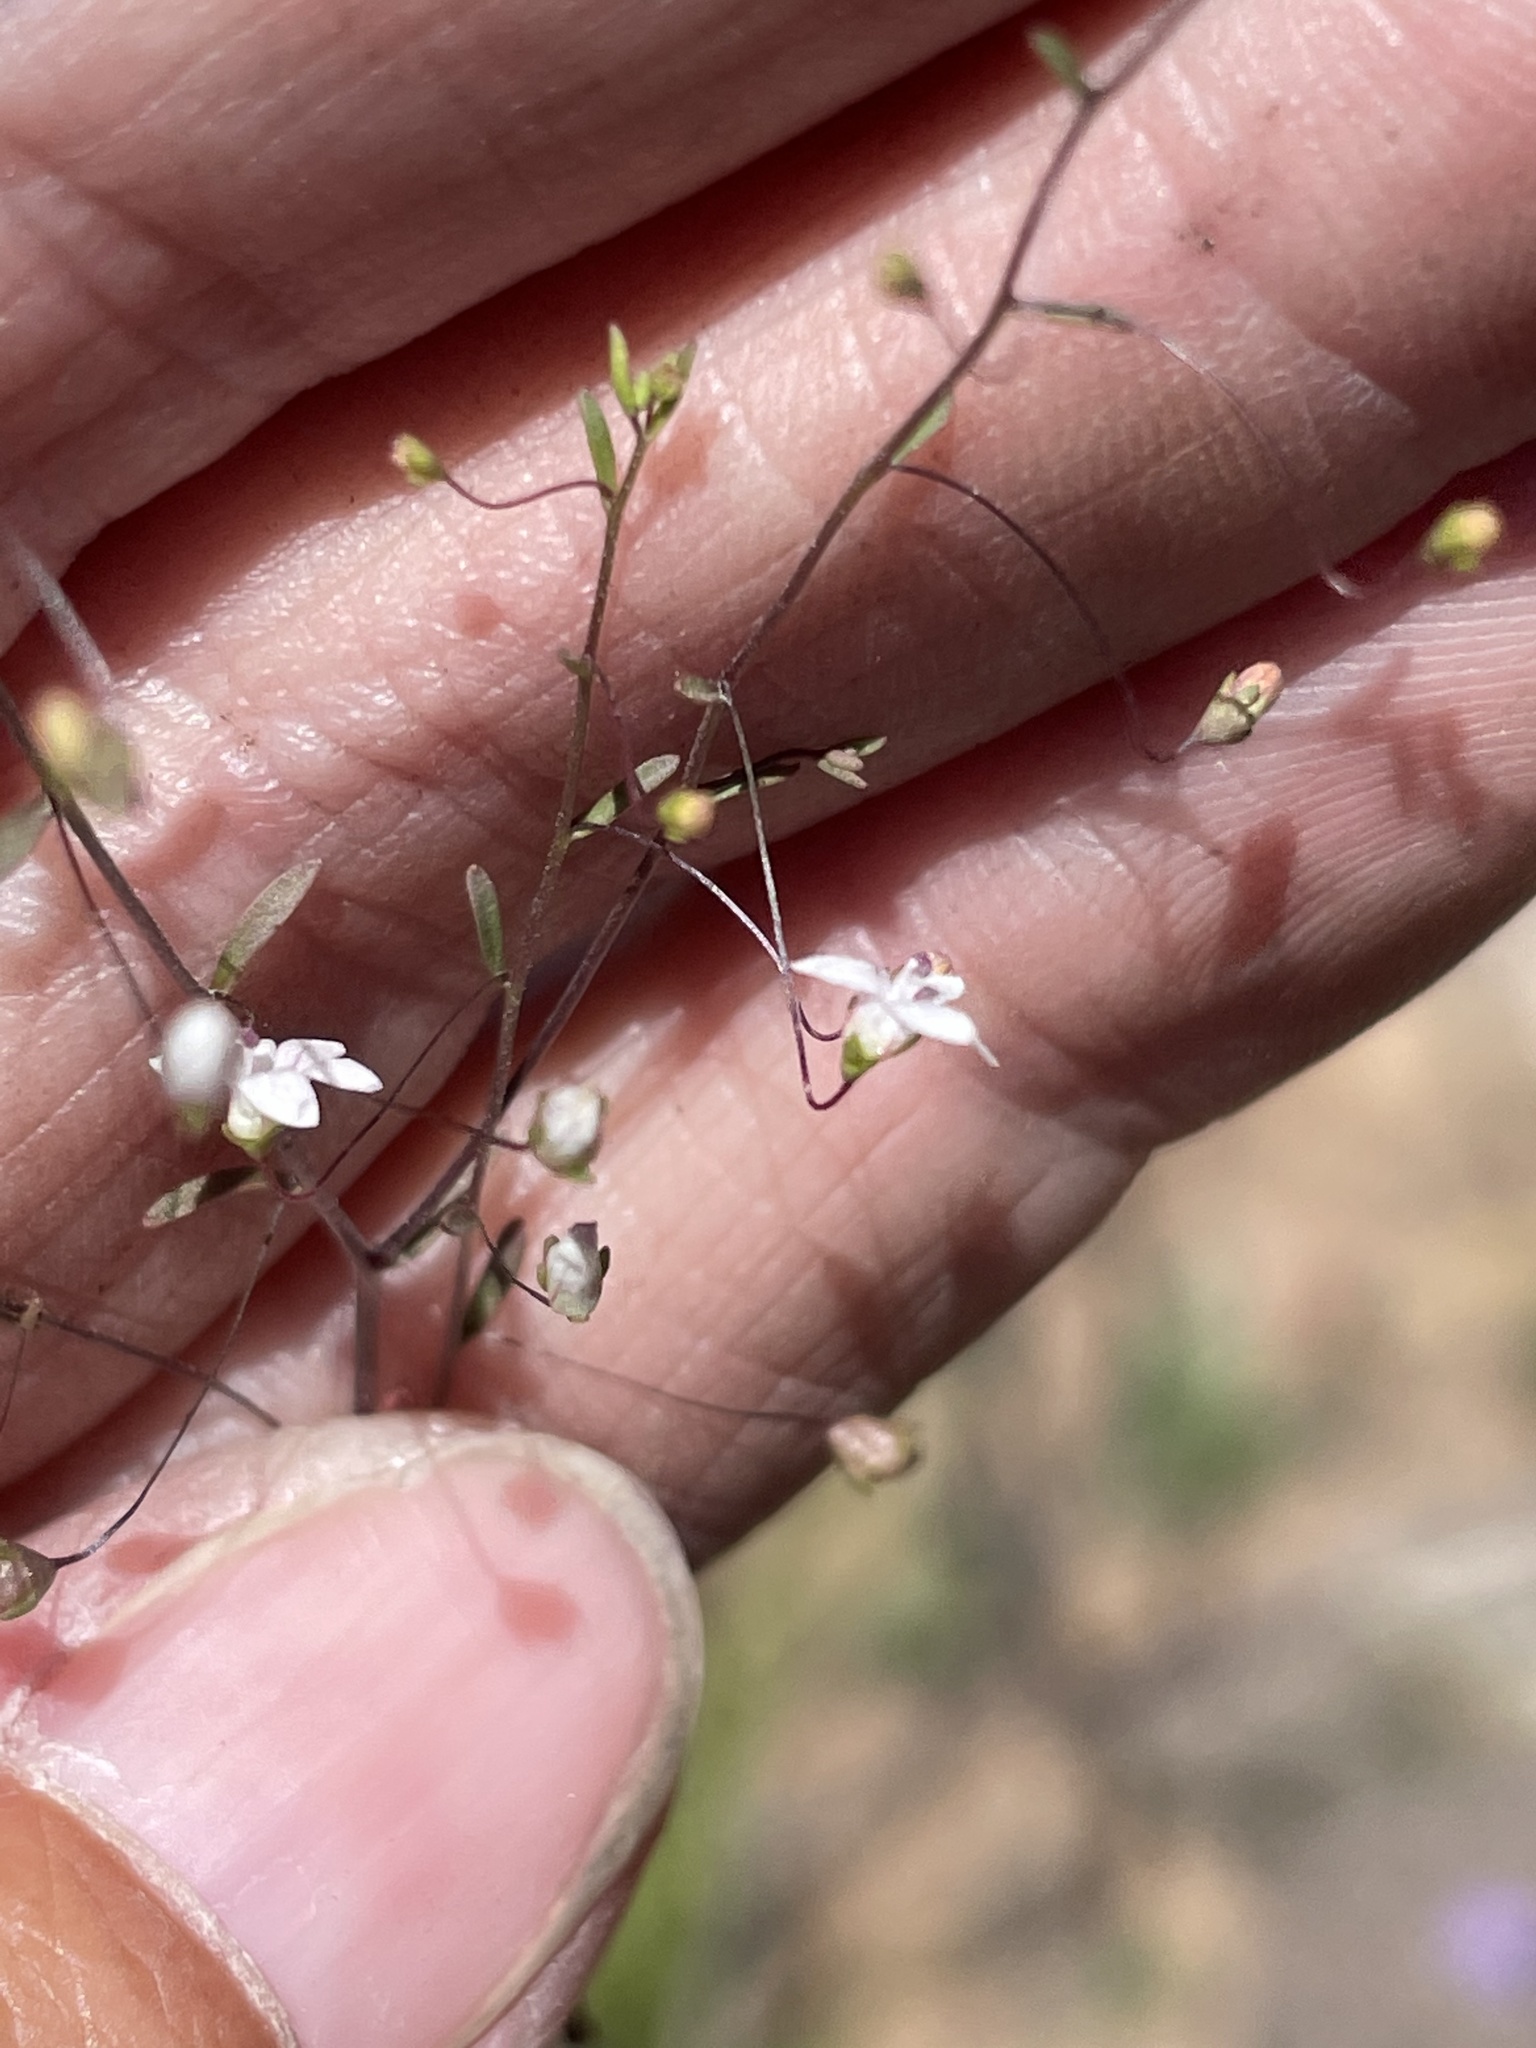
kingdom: Plantae
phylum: Tracheophyta
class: Magnoliopsida
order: Asterales
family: Campanulaceae
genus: Nemacladus
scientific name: Nemacladus ramosissimus
